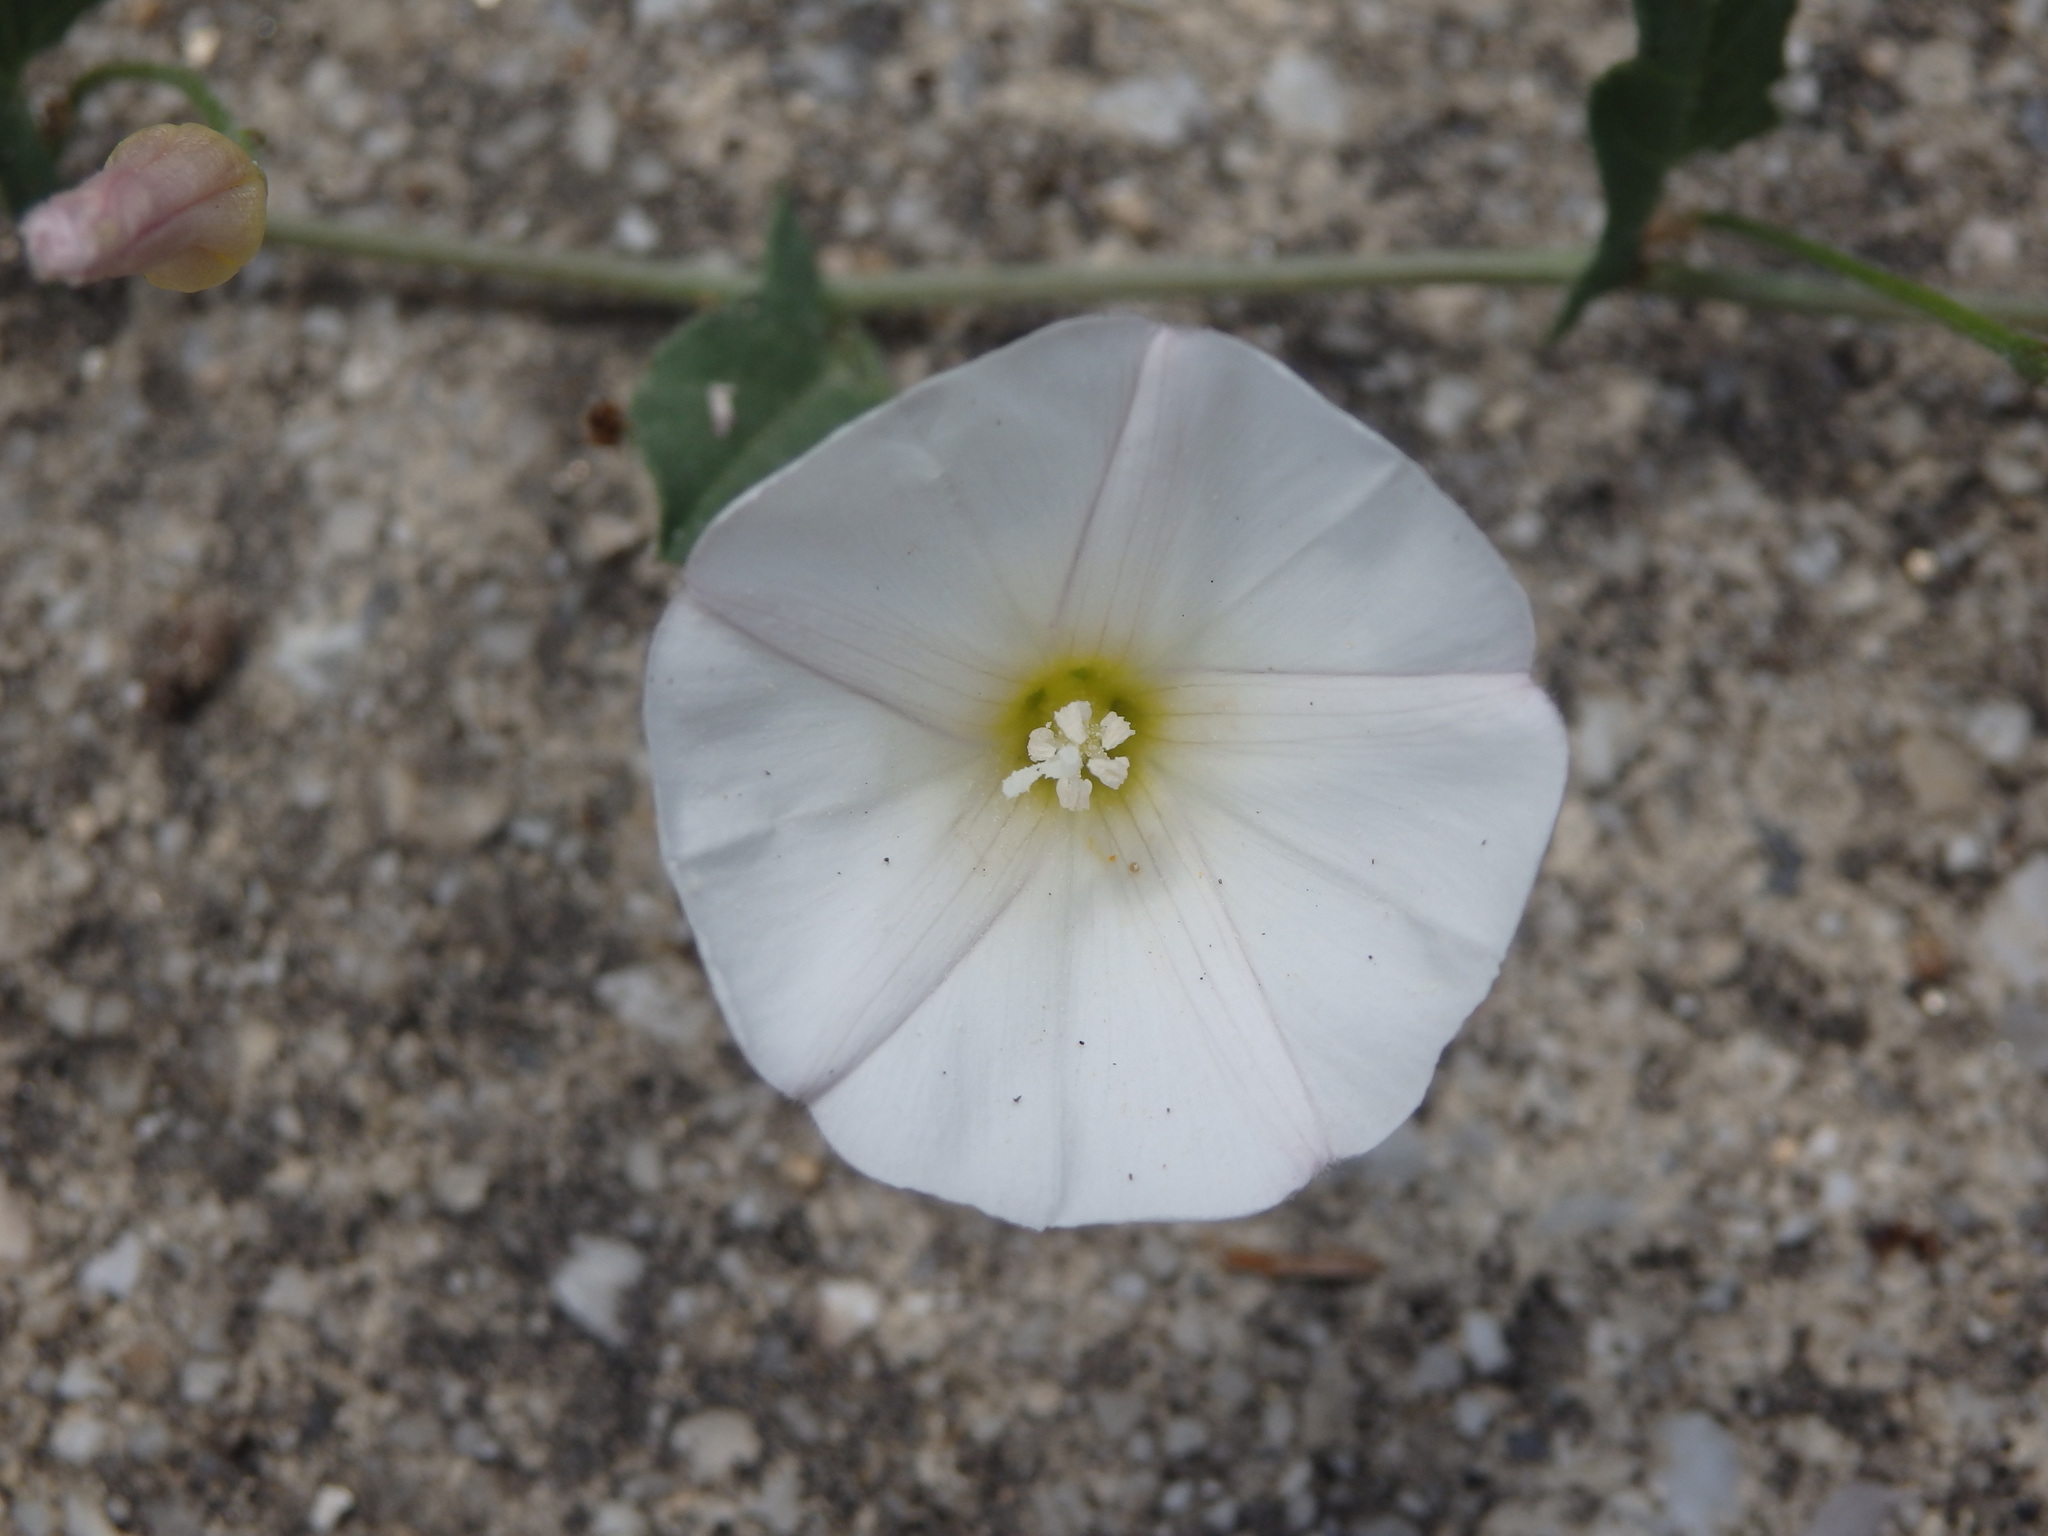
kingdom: Plantae
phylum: Tracheophyta
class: Magnoliopsida
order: Solanales
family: Convolvulaceae
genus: Convolvulus
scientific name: Convolvulus arvensis
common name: Field bindweed
